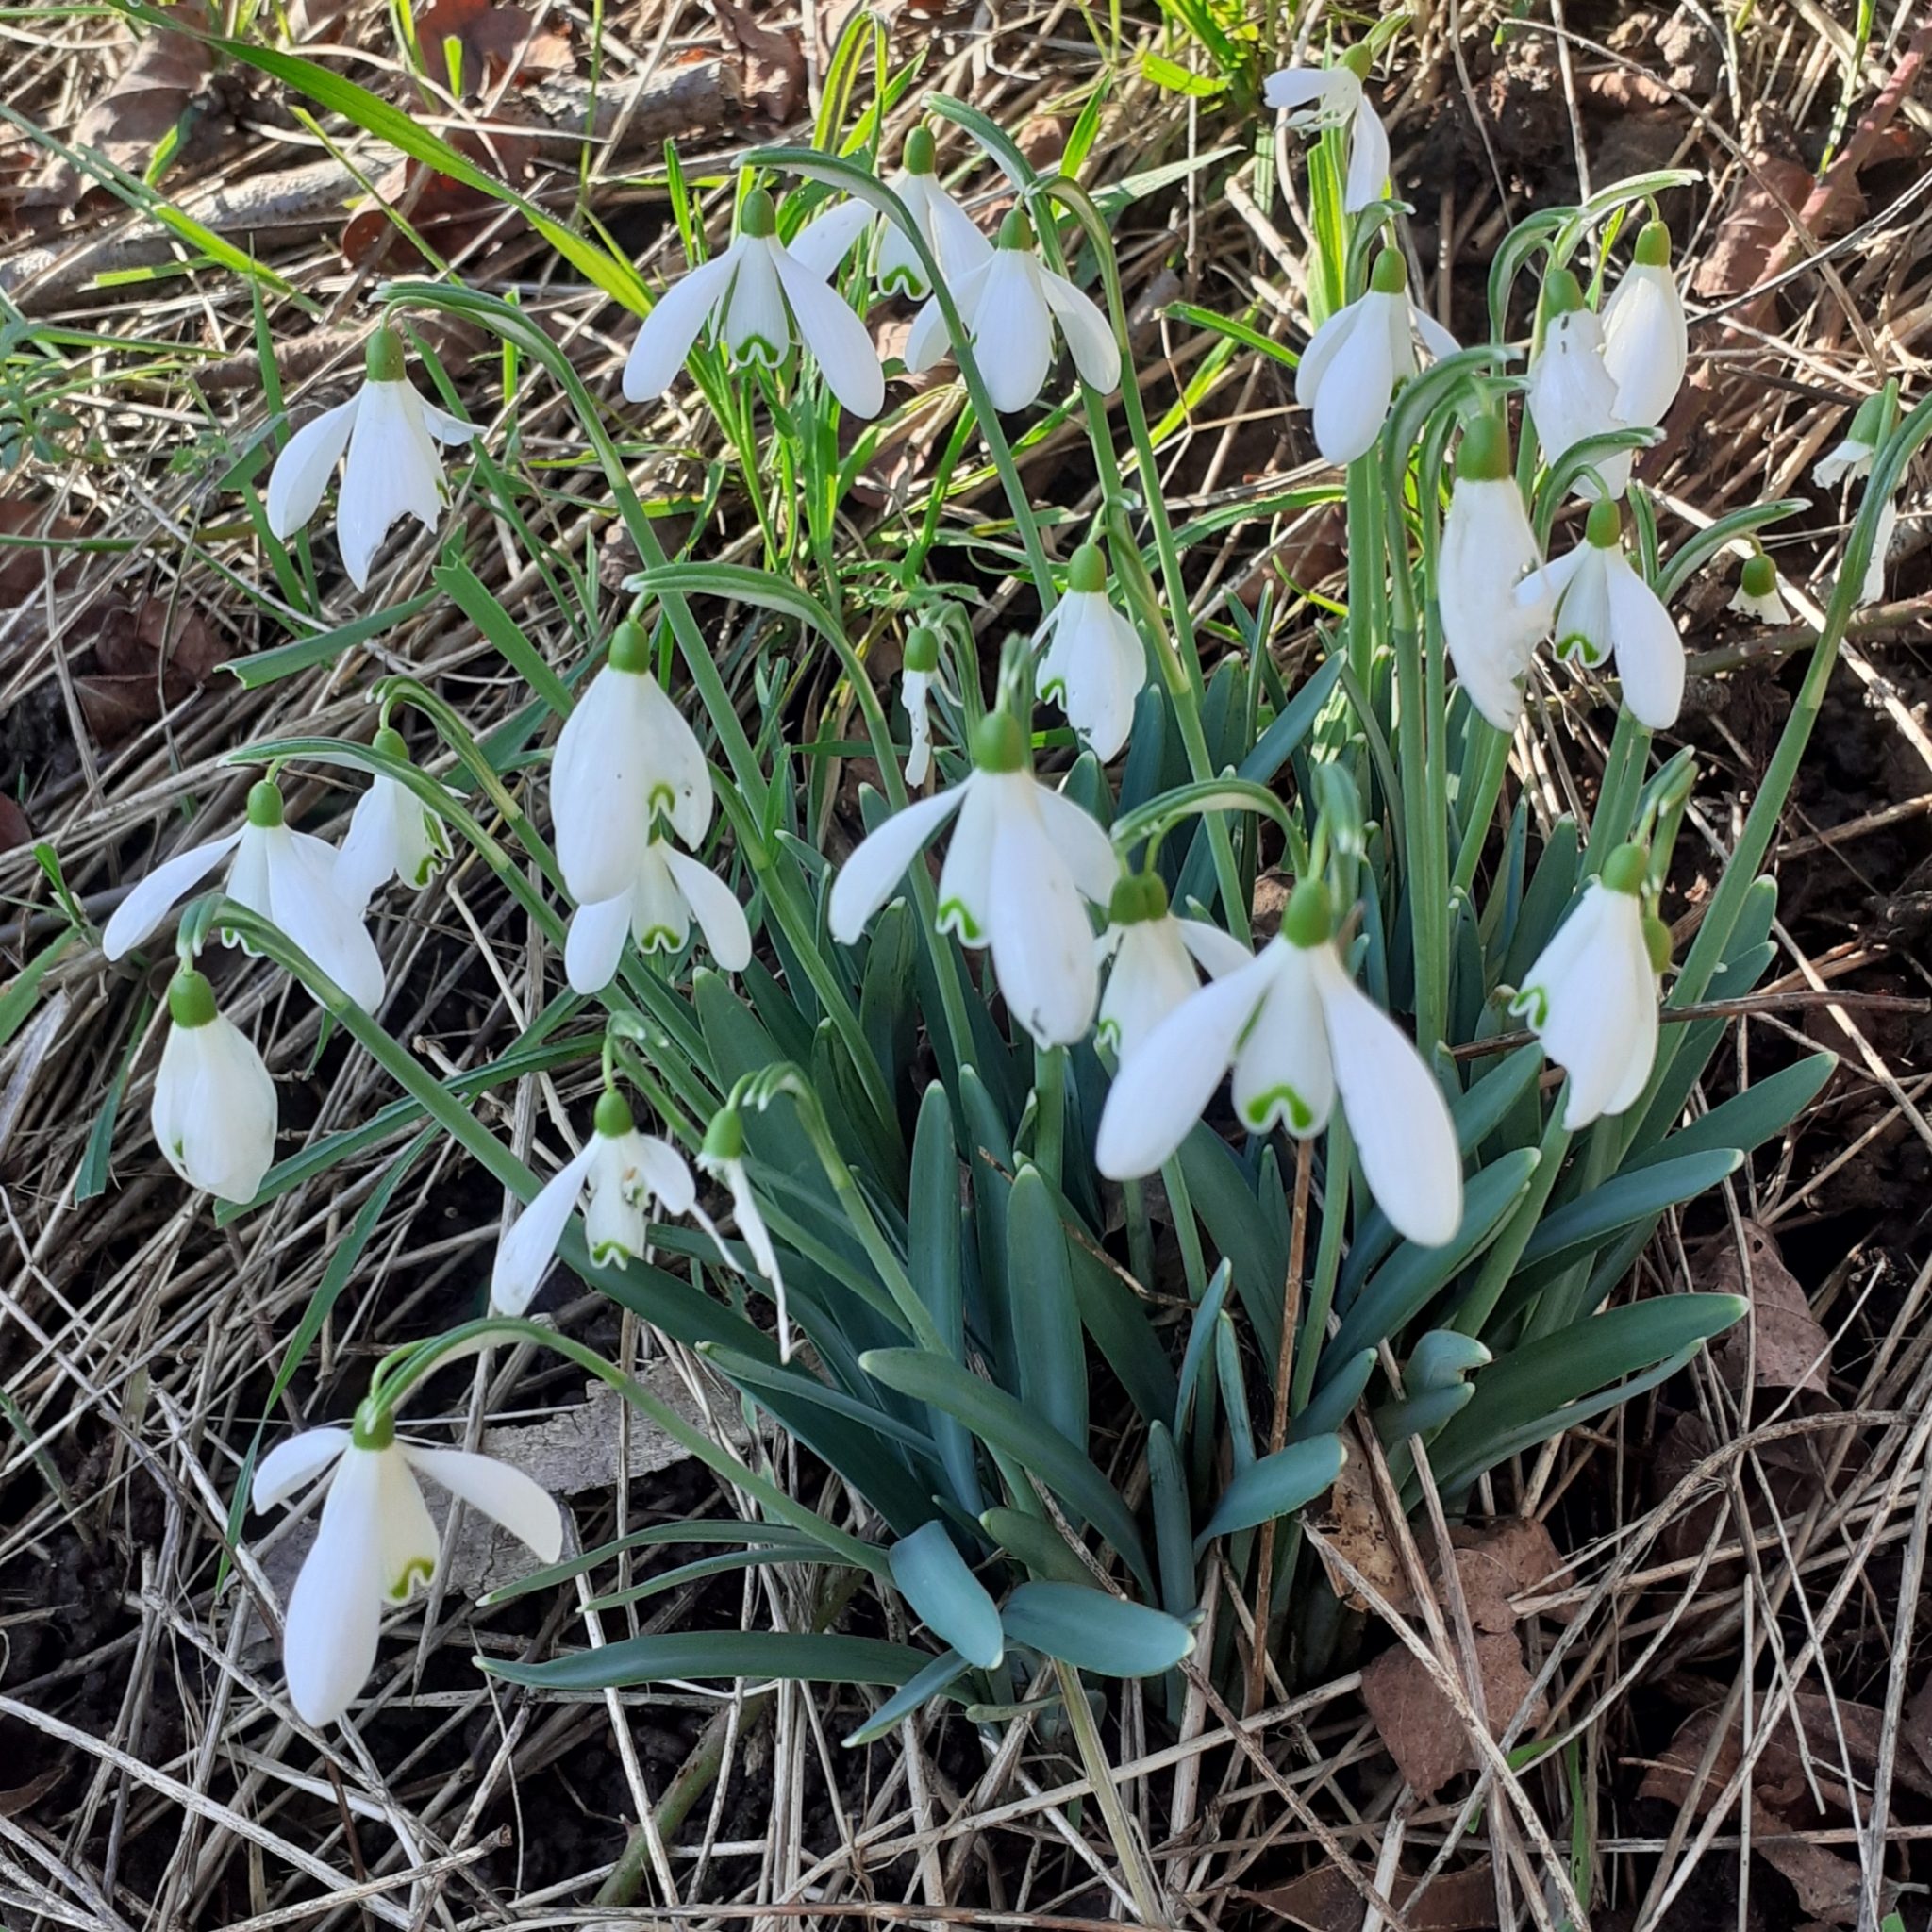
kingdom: Plantae
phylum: Tracheophyta
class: Liliopsida
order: Asparagales
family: Amaryllidaceae
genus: Galanthus
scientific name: Galanthus nivalis
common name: Snowdrop
